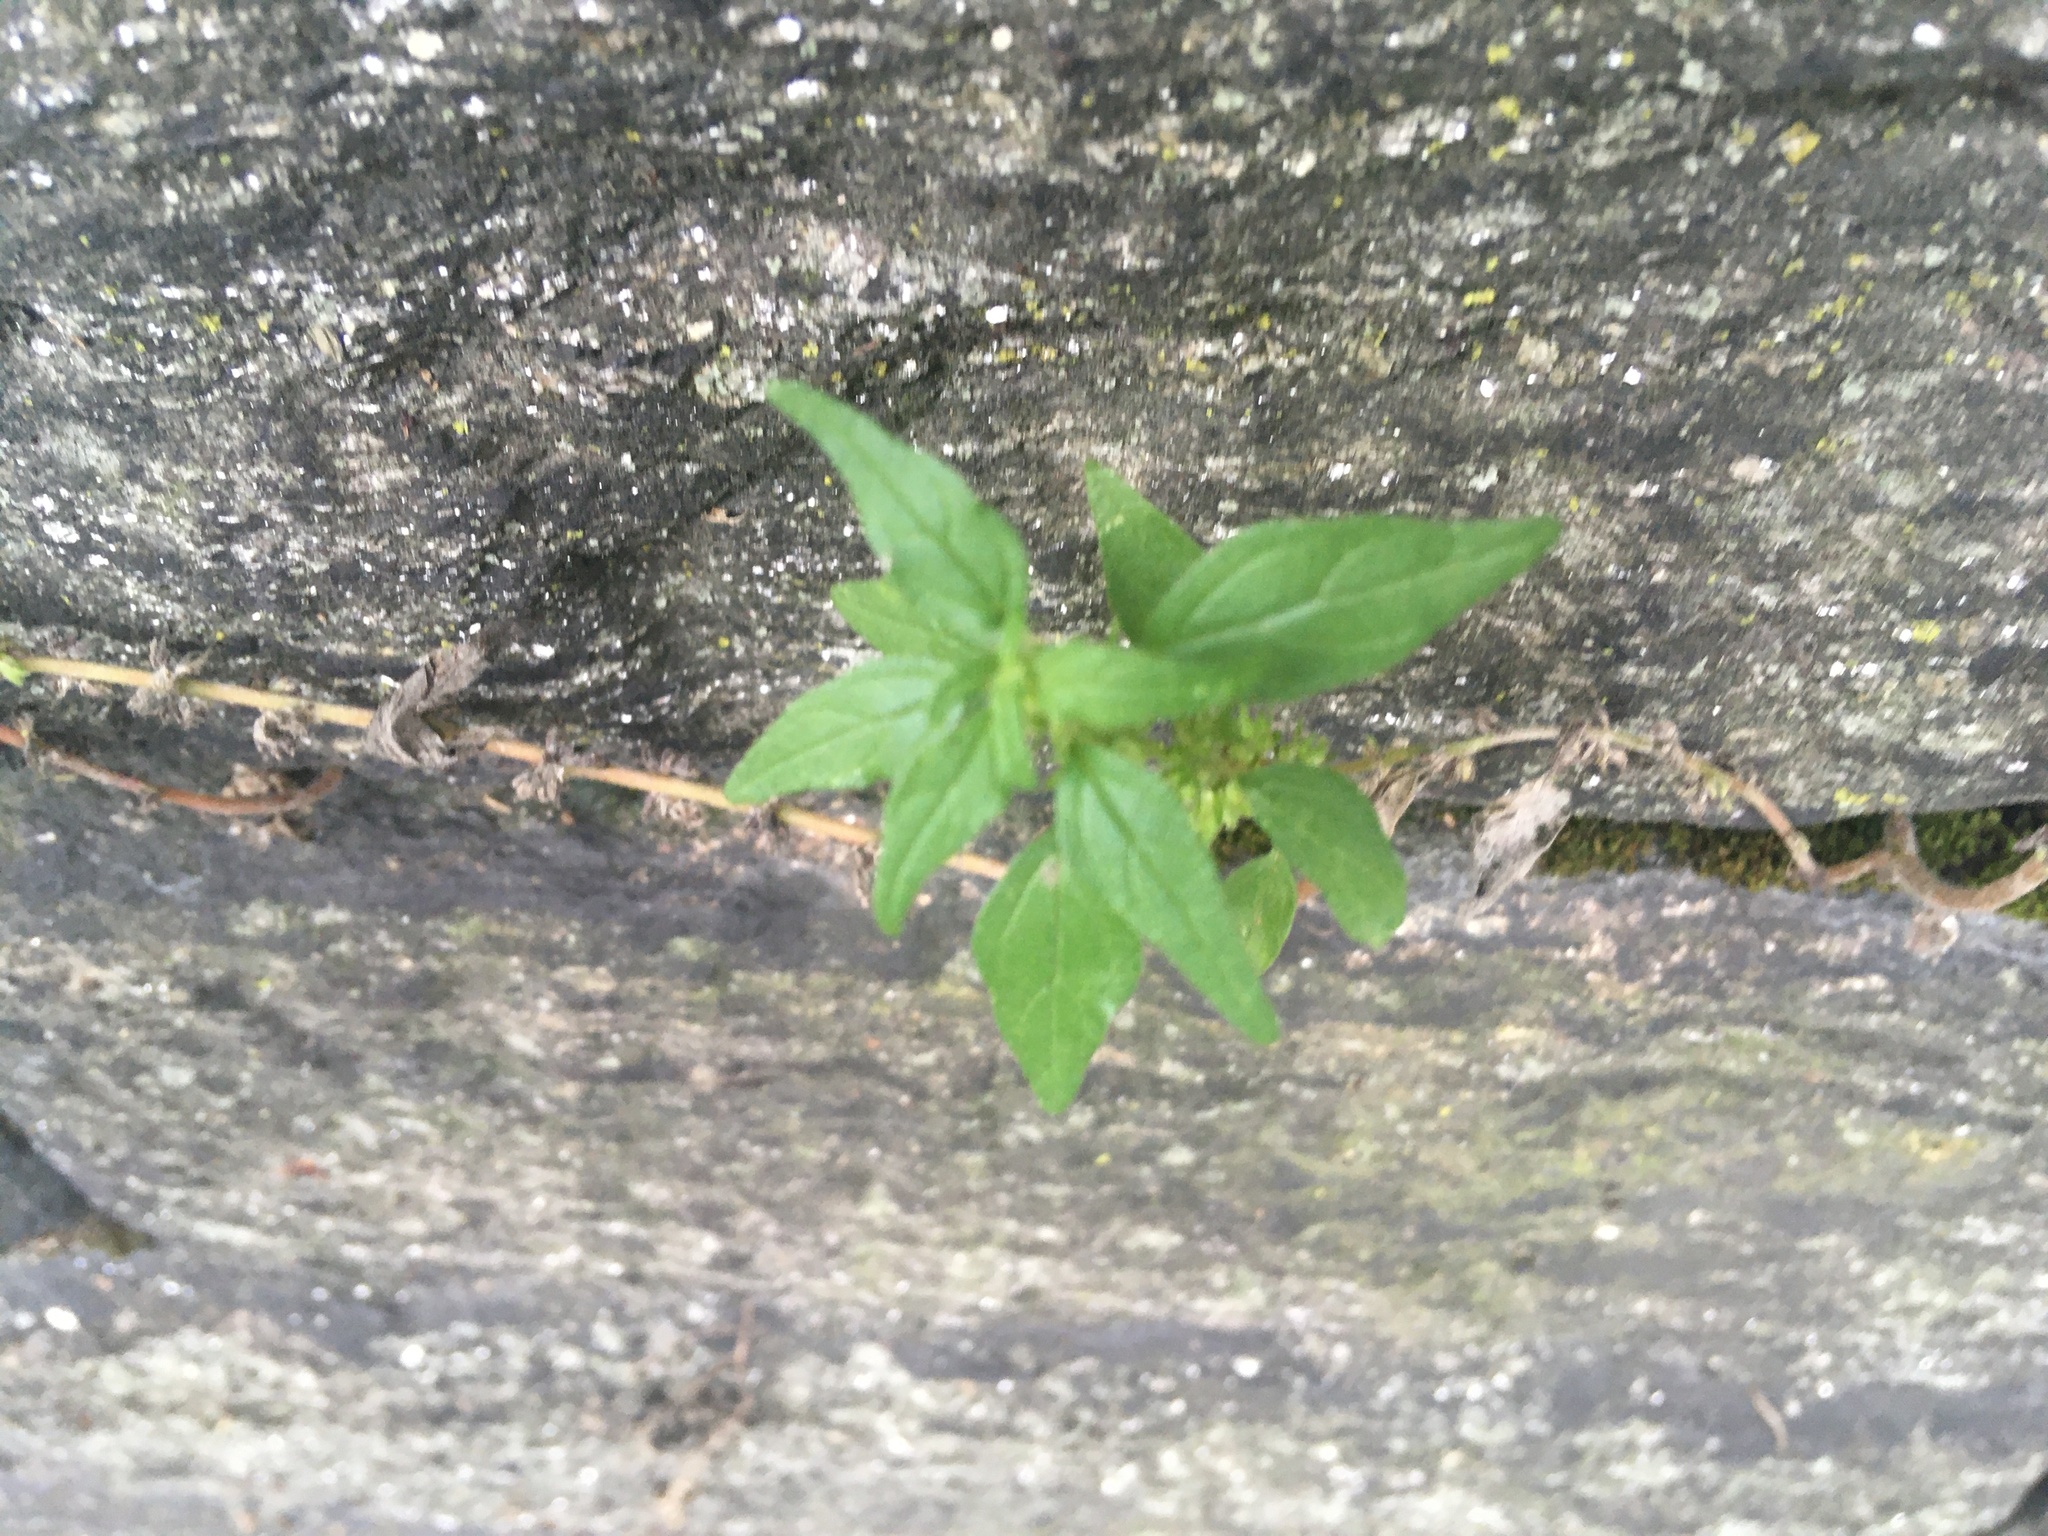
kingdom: Plantae
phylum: Tracheophyta
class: Magnoliopsida
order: Rosales
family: Urticaceae
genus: Parietaria
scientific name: Parietaria pensylvanica
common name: Pennsylvania pellitory
